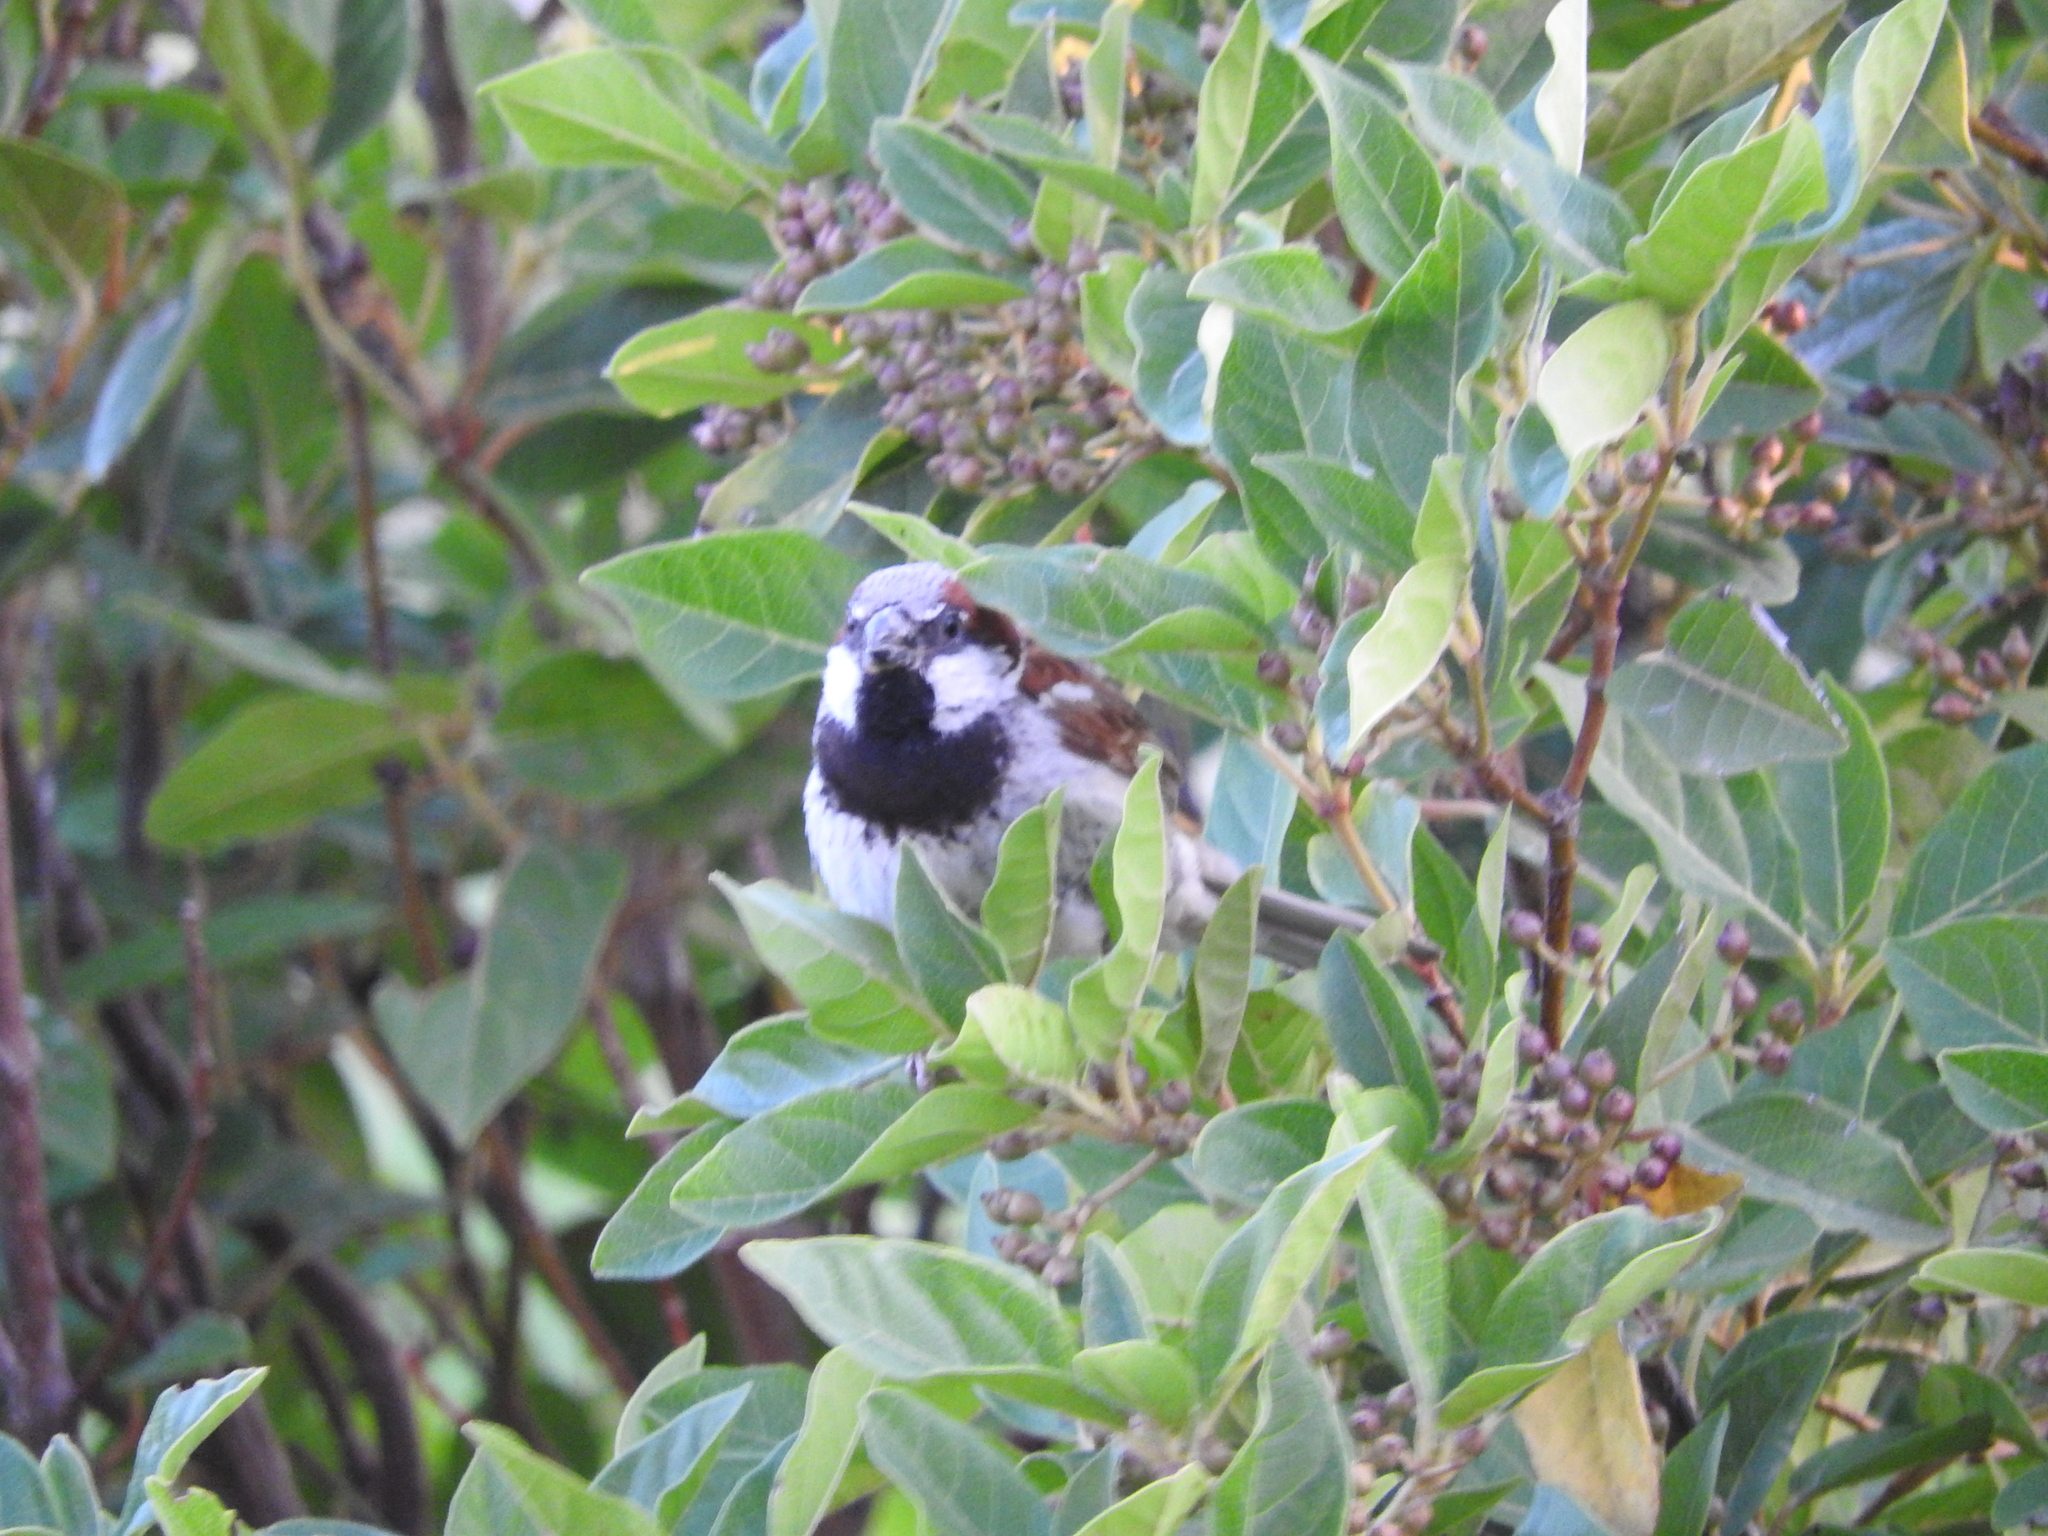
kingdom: Animalia
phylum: Chordata
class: Aves
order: Passeriformes
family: Passeridae
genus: Passer
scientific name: Passer domesticus
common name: House sparrow
